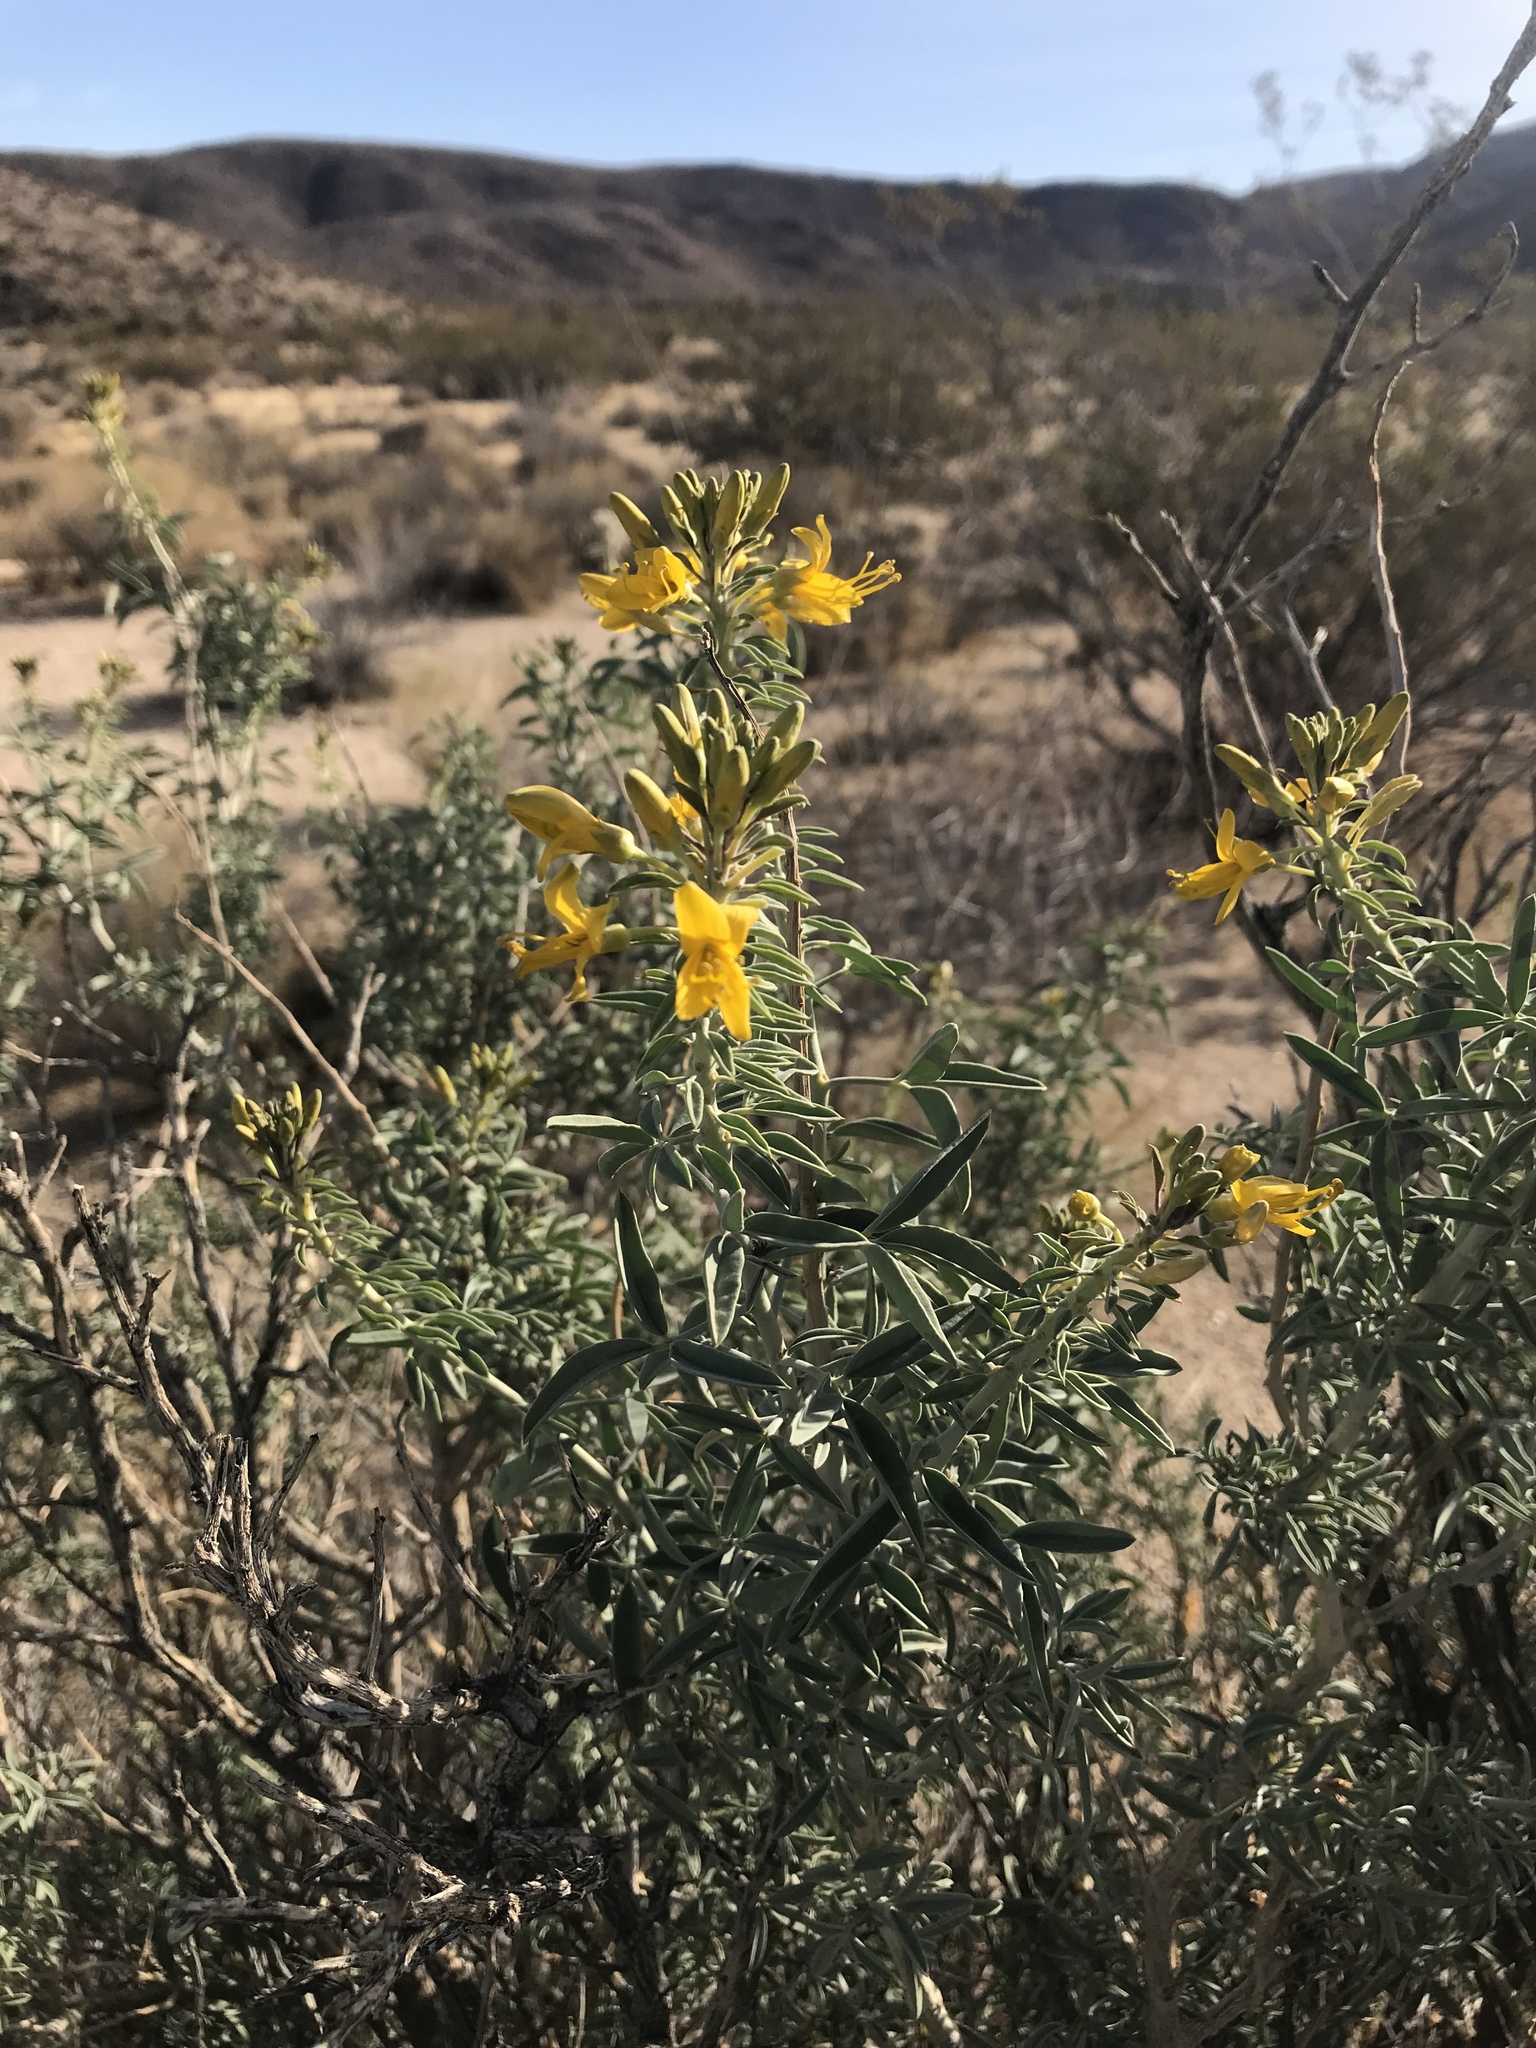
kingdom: Plantae
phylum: Tracheophyta
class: Magnoliopsida
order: Brassicales
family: Cleomaceae
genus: Cleomella
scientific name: Cleomella arborea
